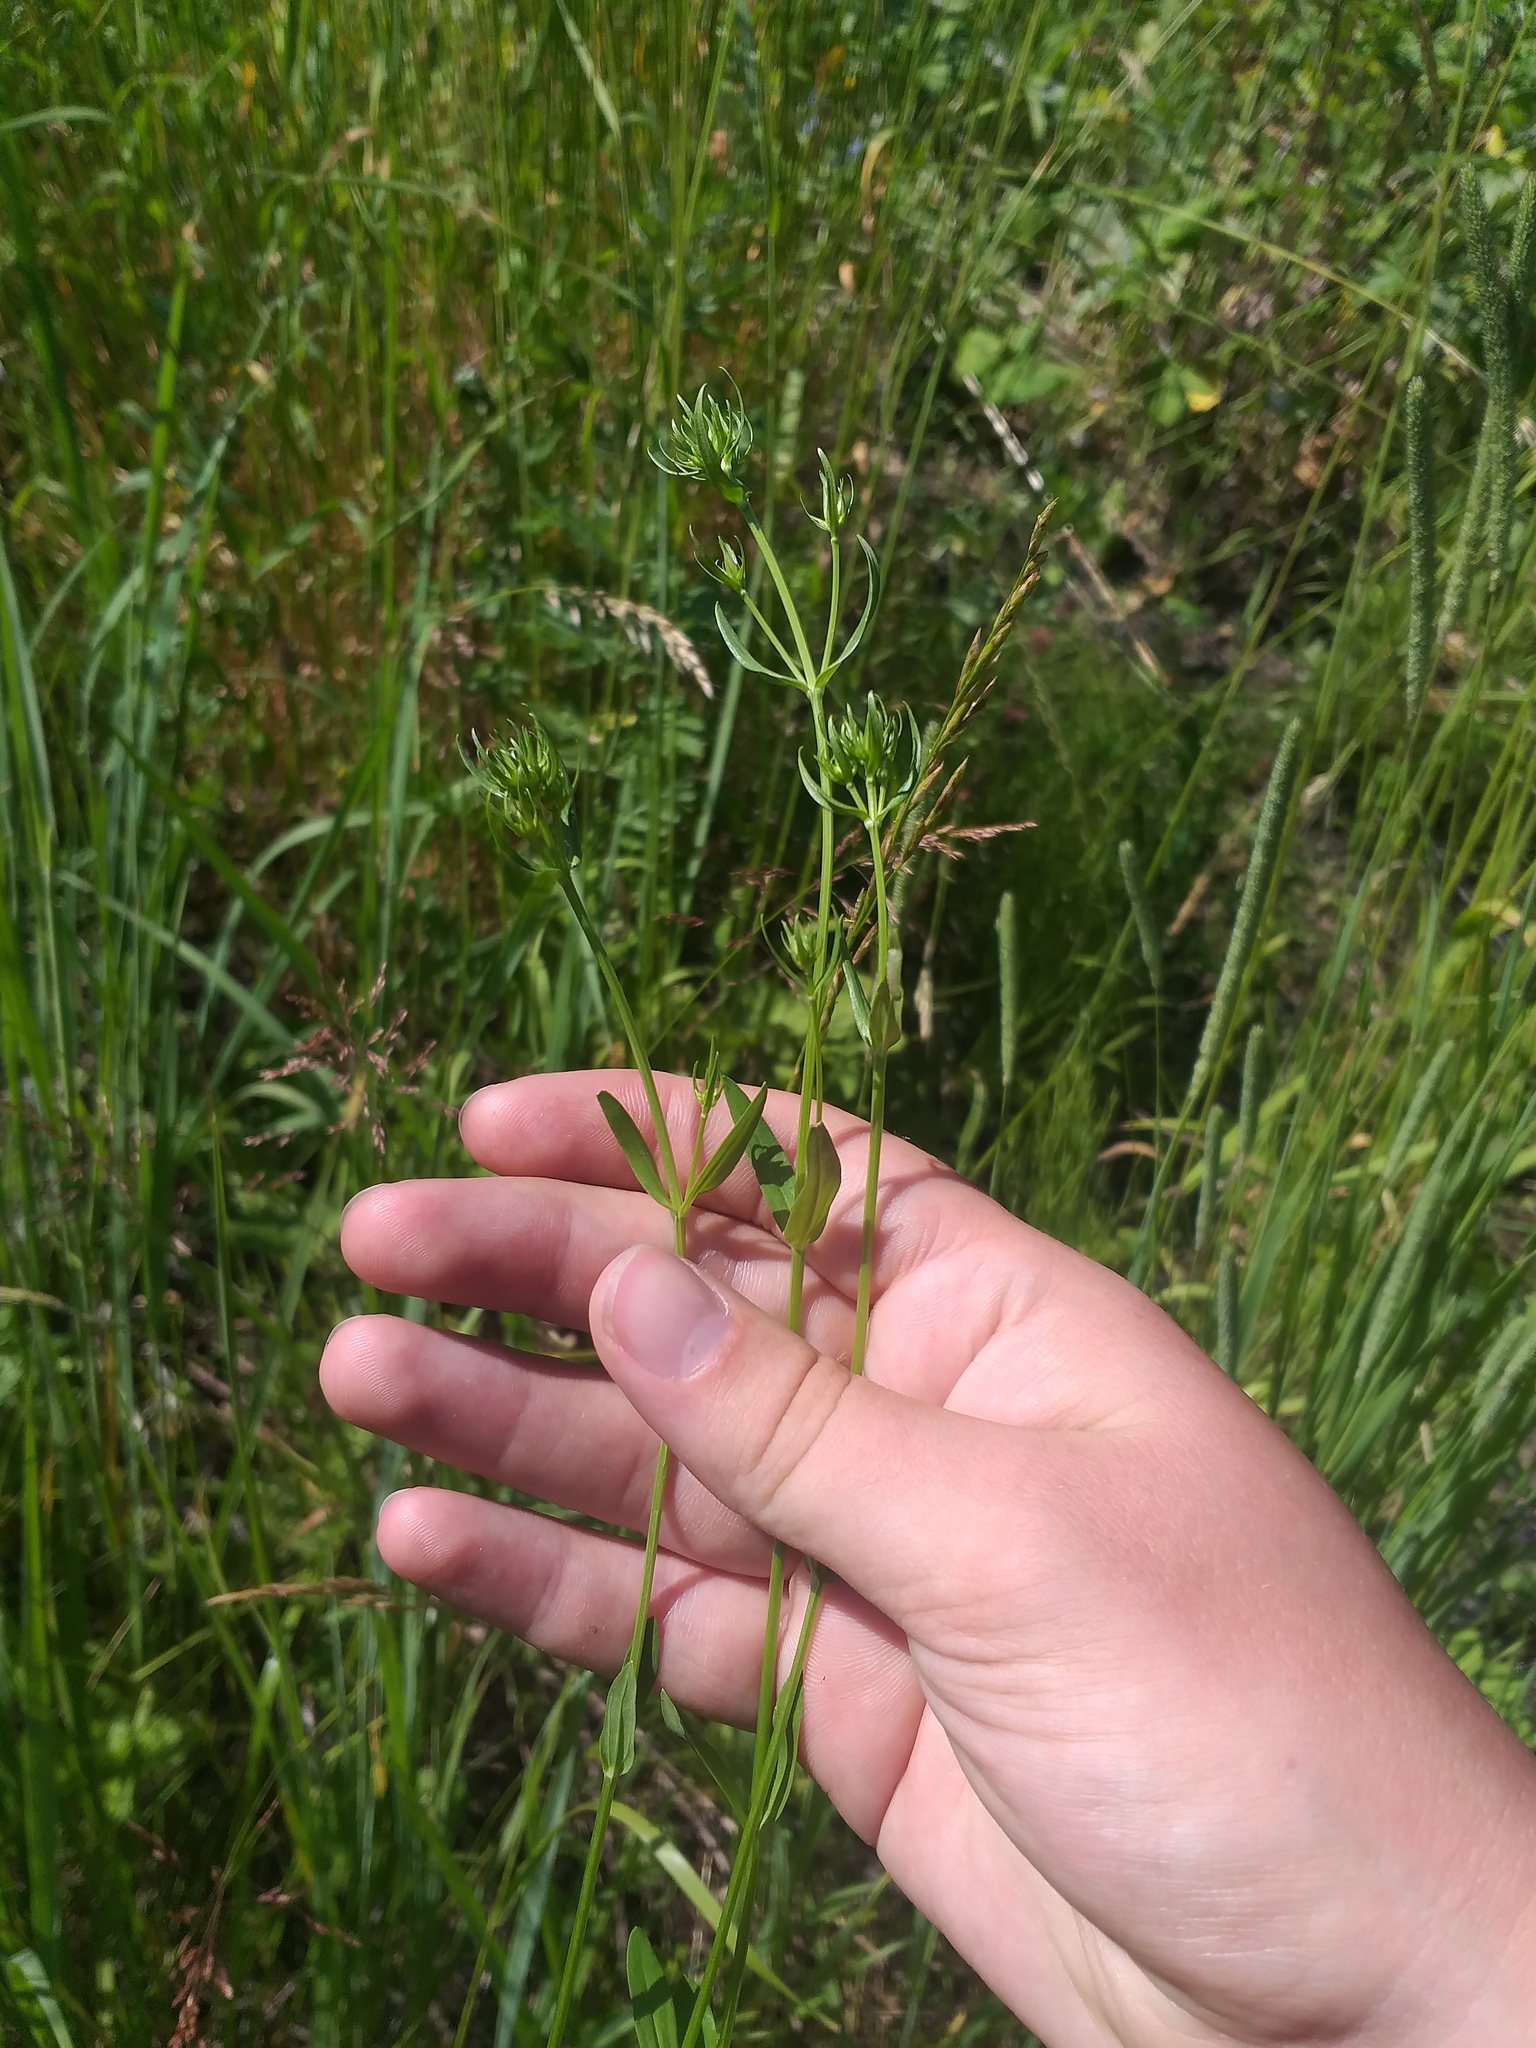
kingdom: Plantae
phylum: Tracheophyta
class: Magnoliopsida
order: Gentianales
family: Gentianaceae
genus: Centaurium
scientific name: Centaurium erythraea
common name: Common centaury
